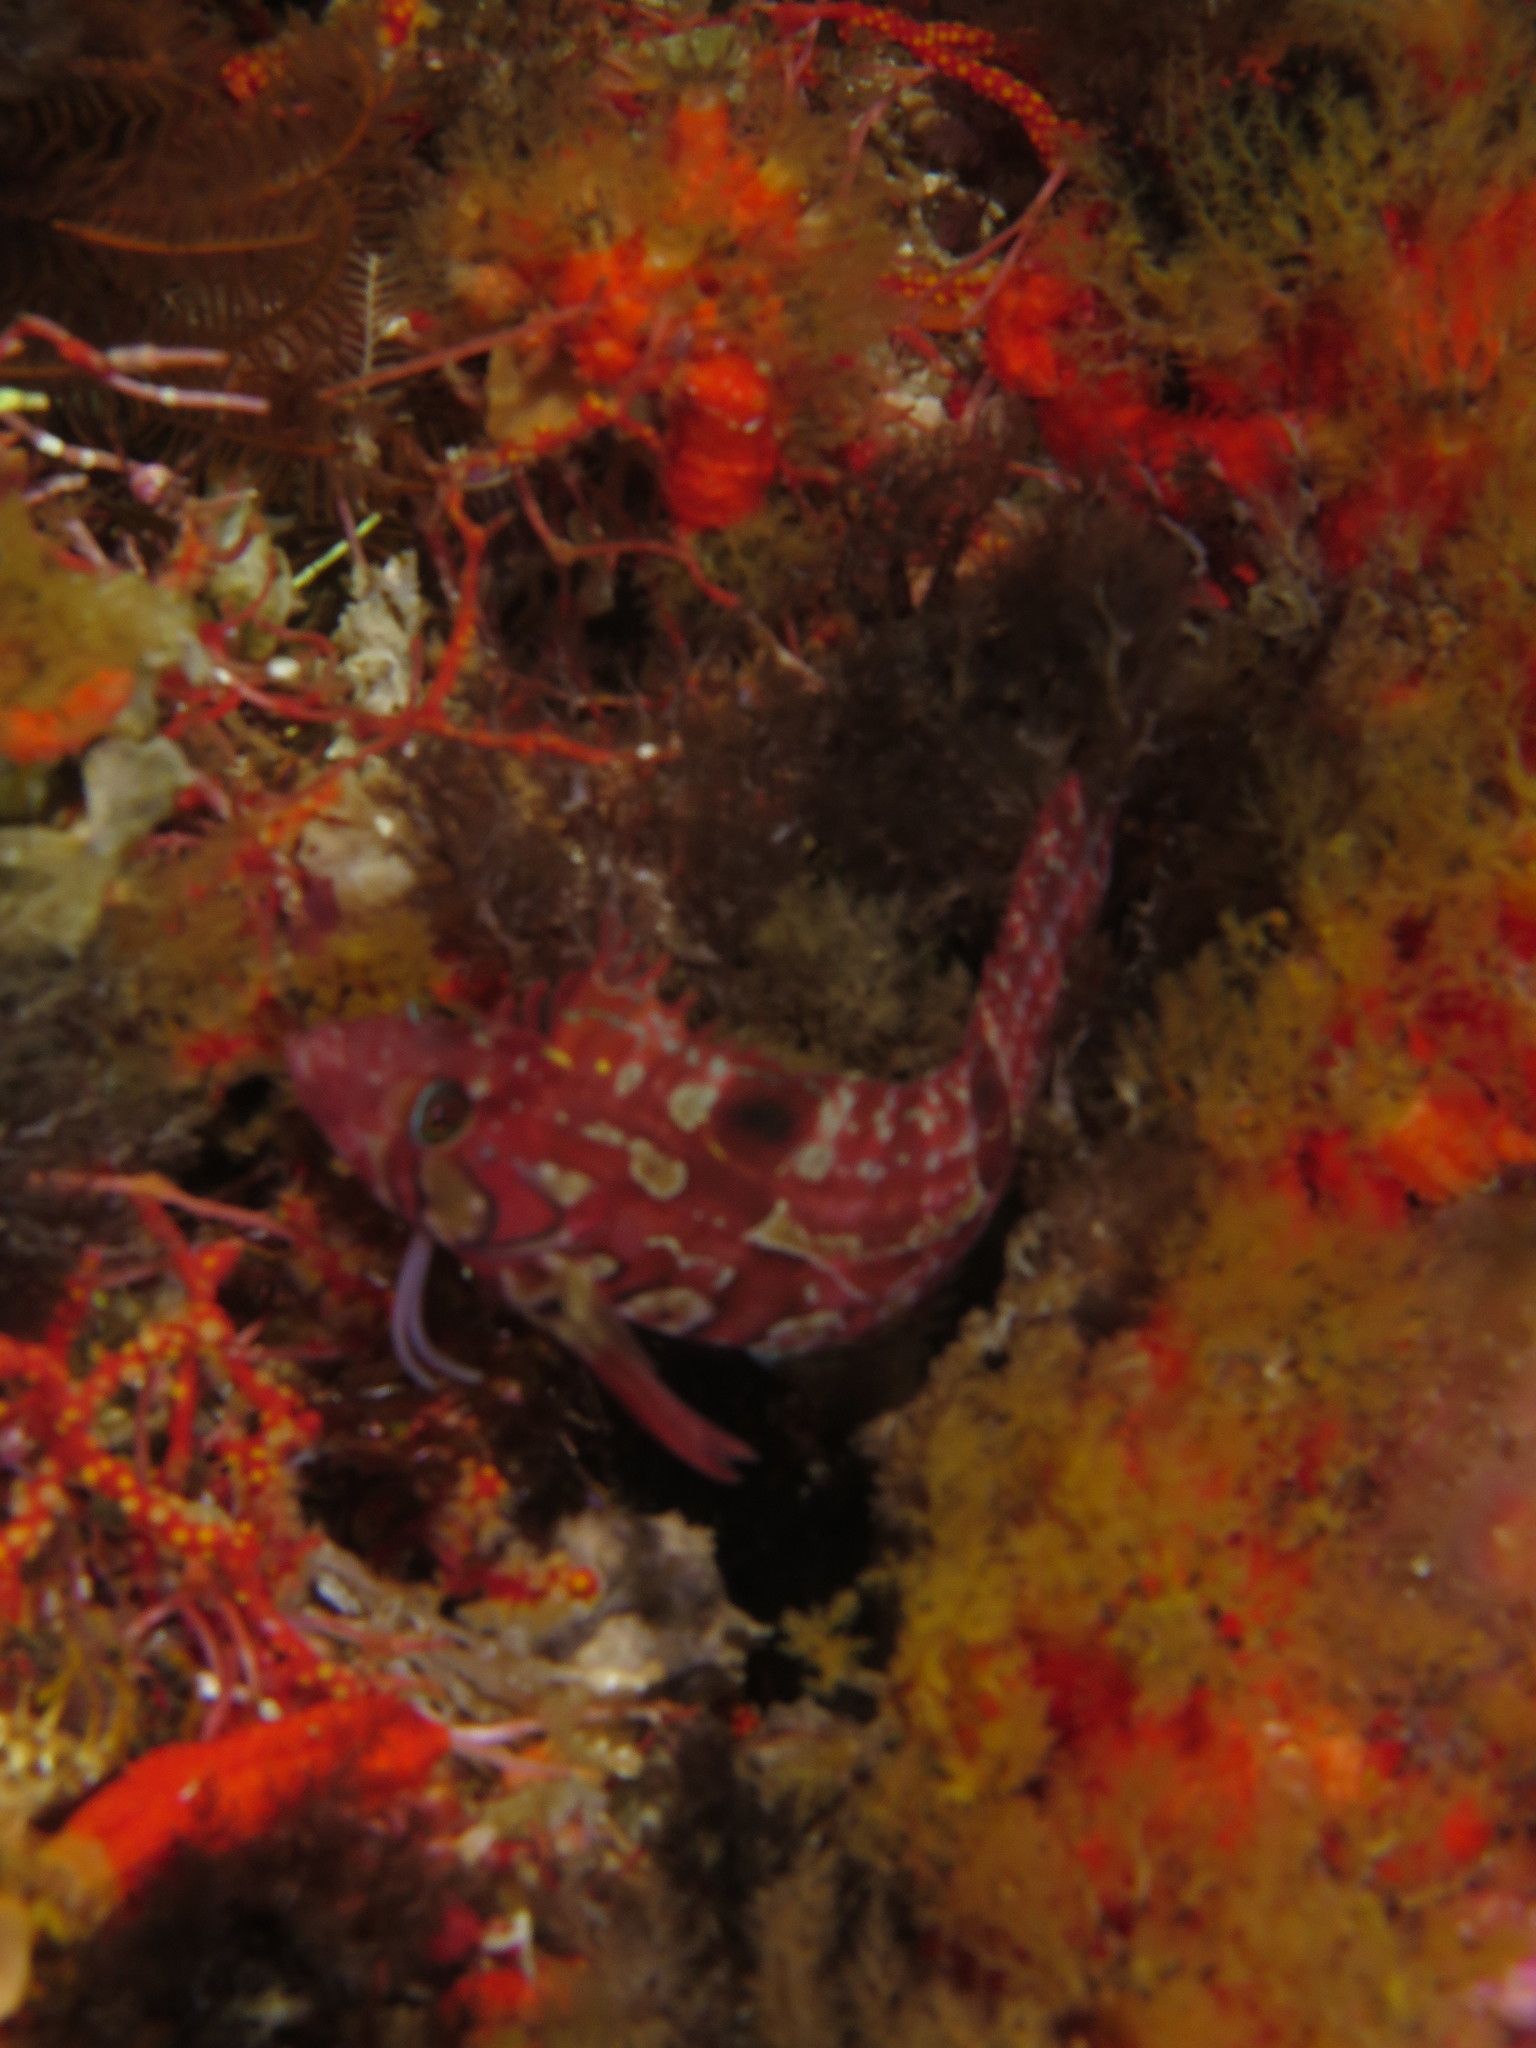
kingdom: Animalia
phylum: Chordata
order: Perciformes
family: Clinidae
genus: Clinus
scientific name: Clinus venustris
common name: Speckled klipfish
